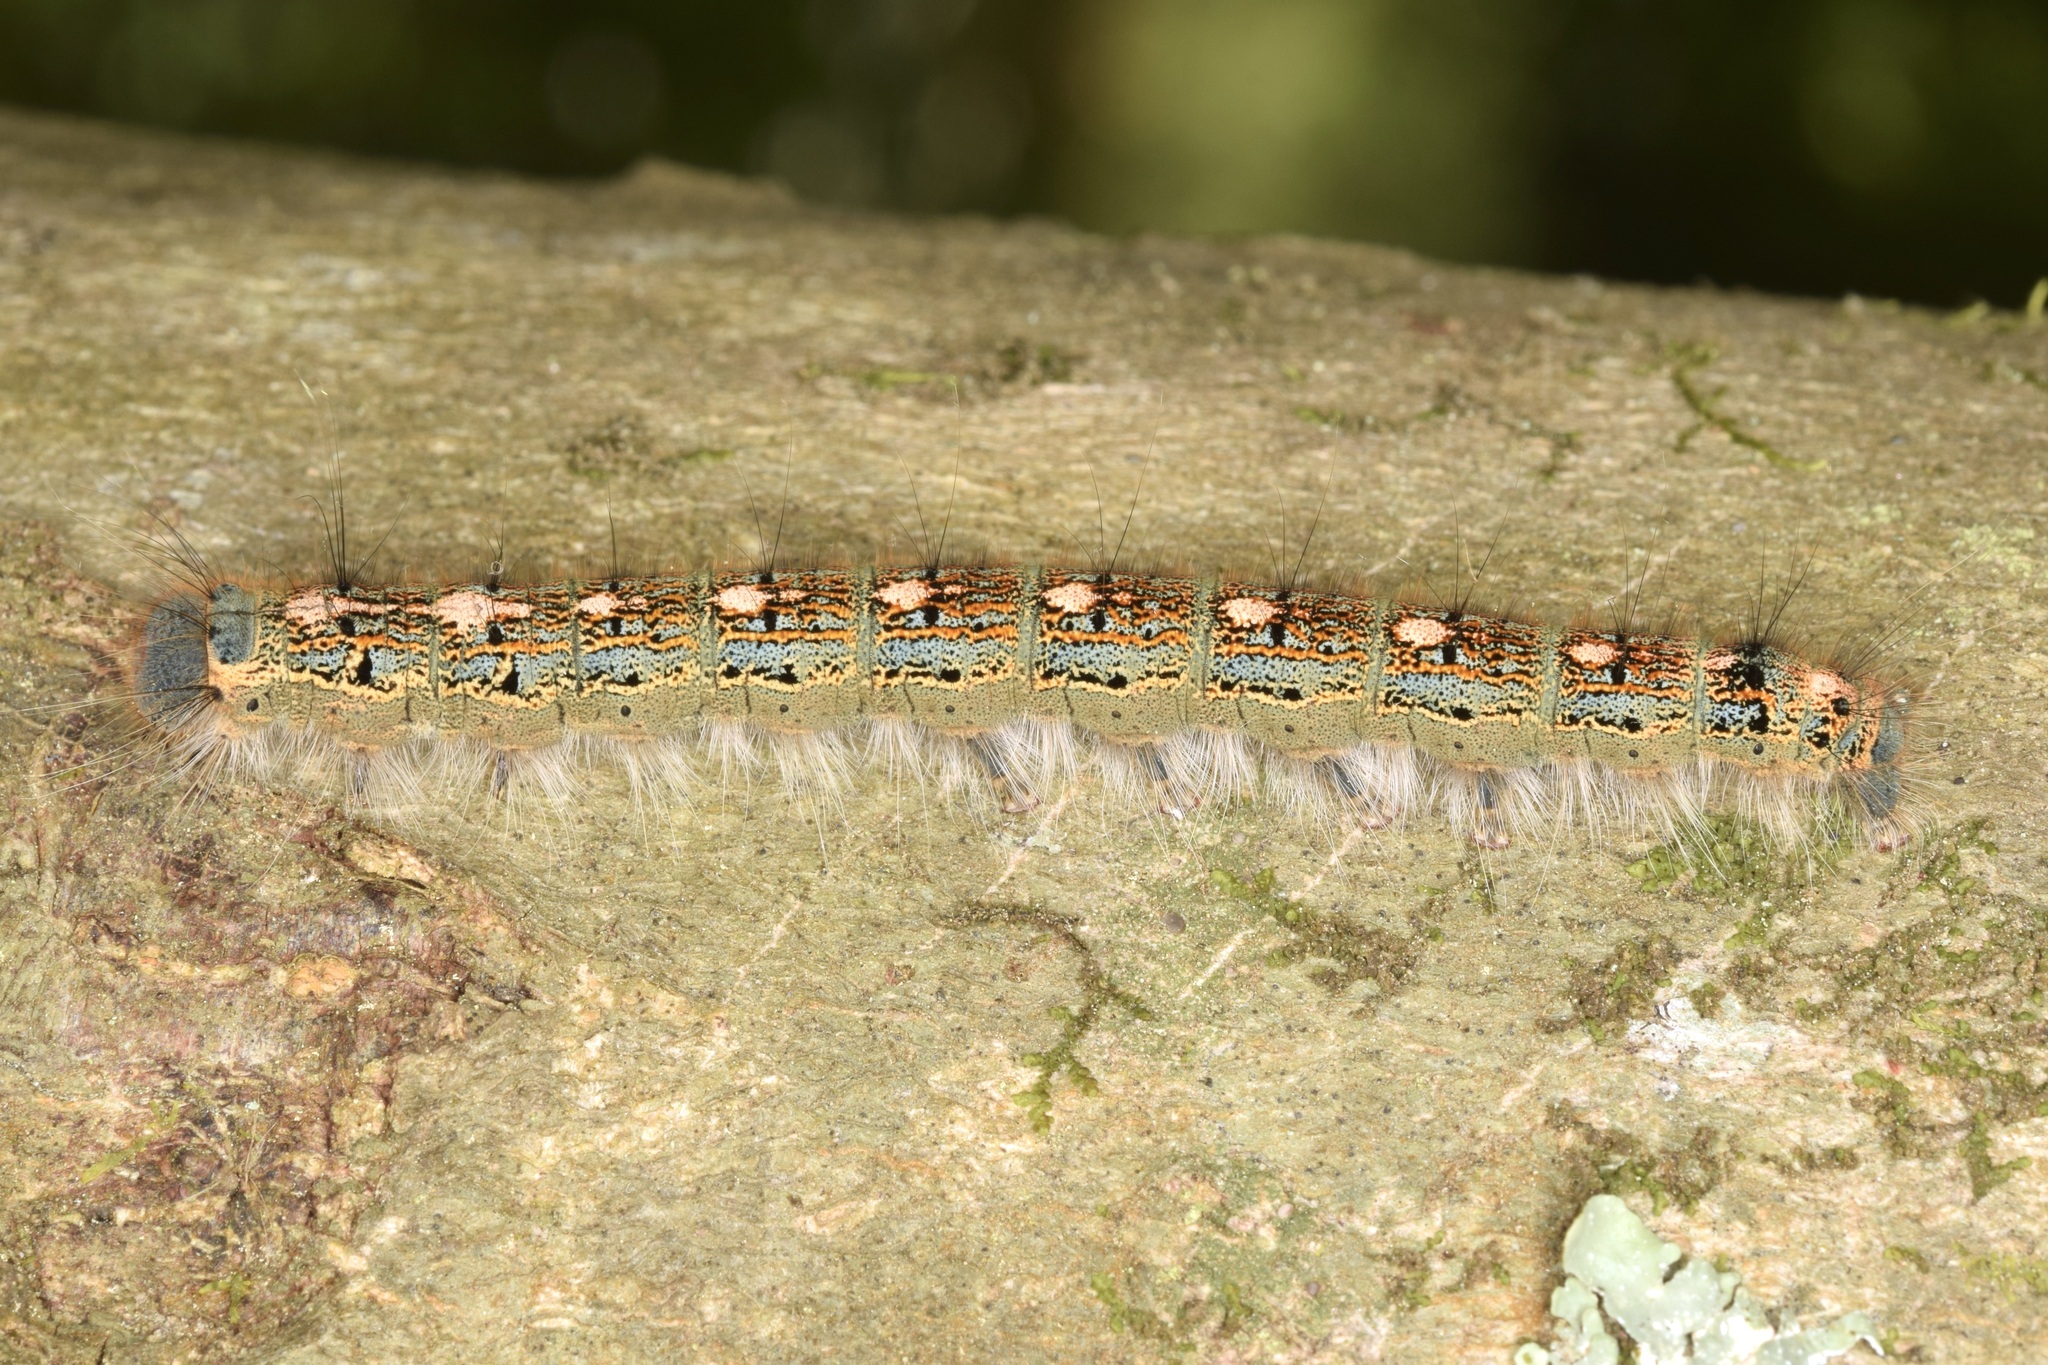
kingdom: Animalia
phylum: Arthropoda
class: Insecta
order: Lepidoptera
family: Lasiocampidae
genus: Malacosoma
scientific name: Malacosoma disstria
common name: Forest tent caterpillar
